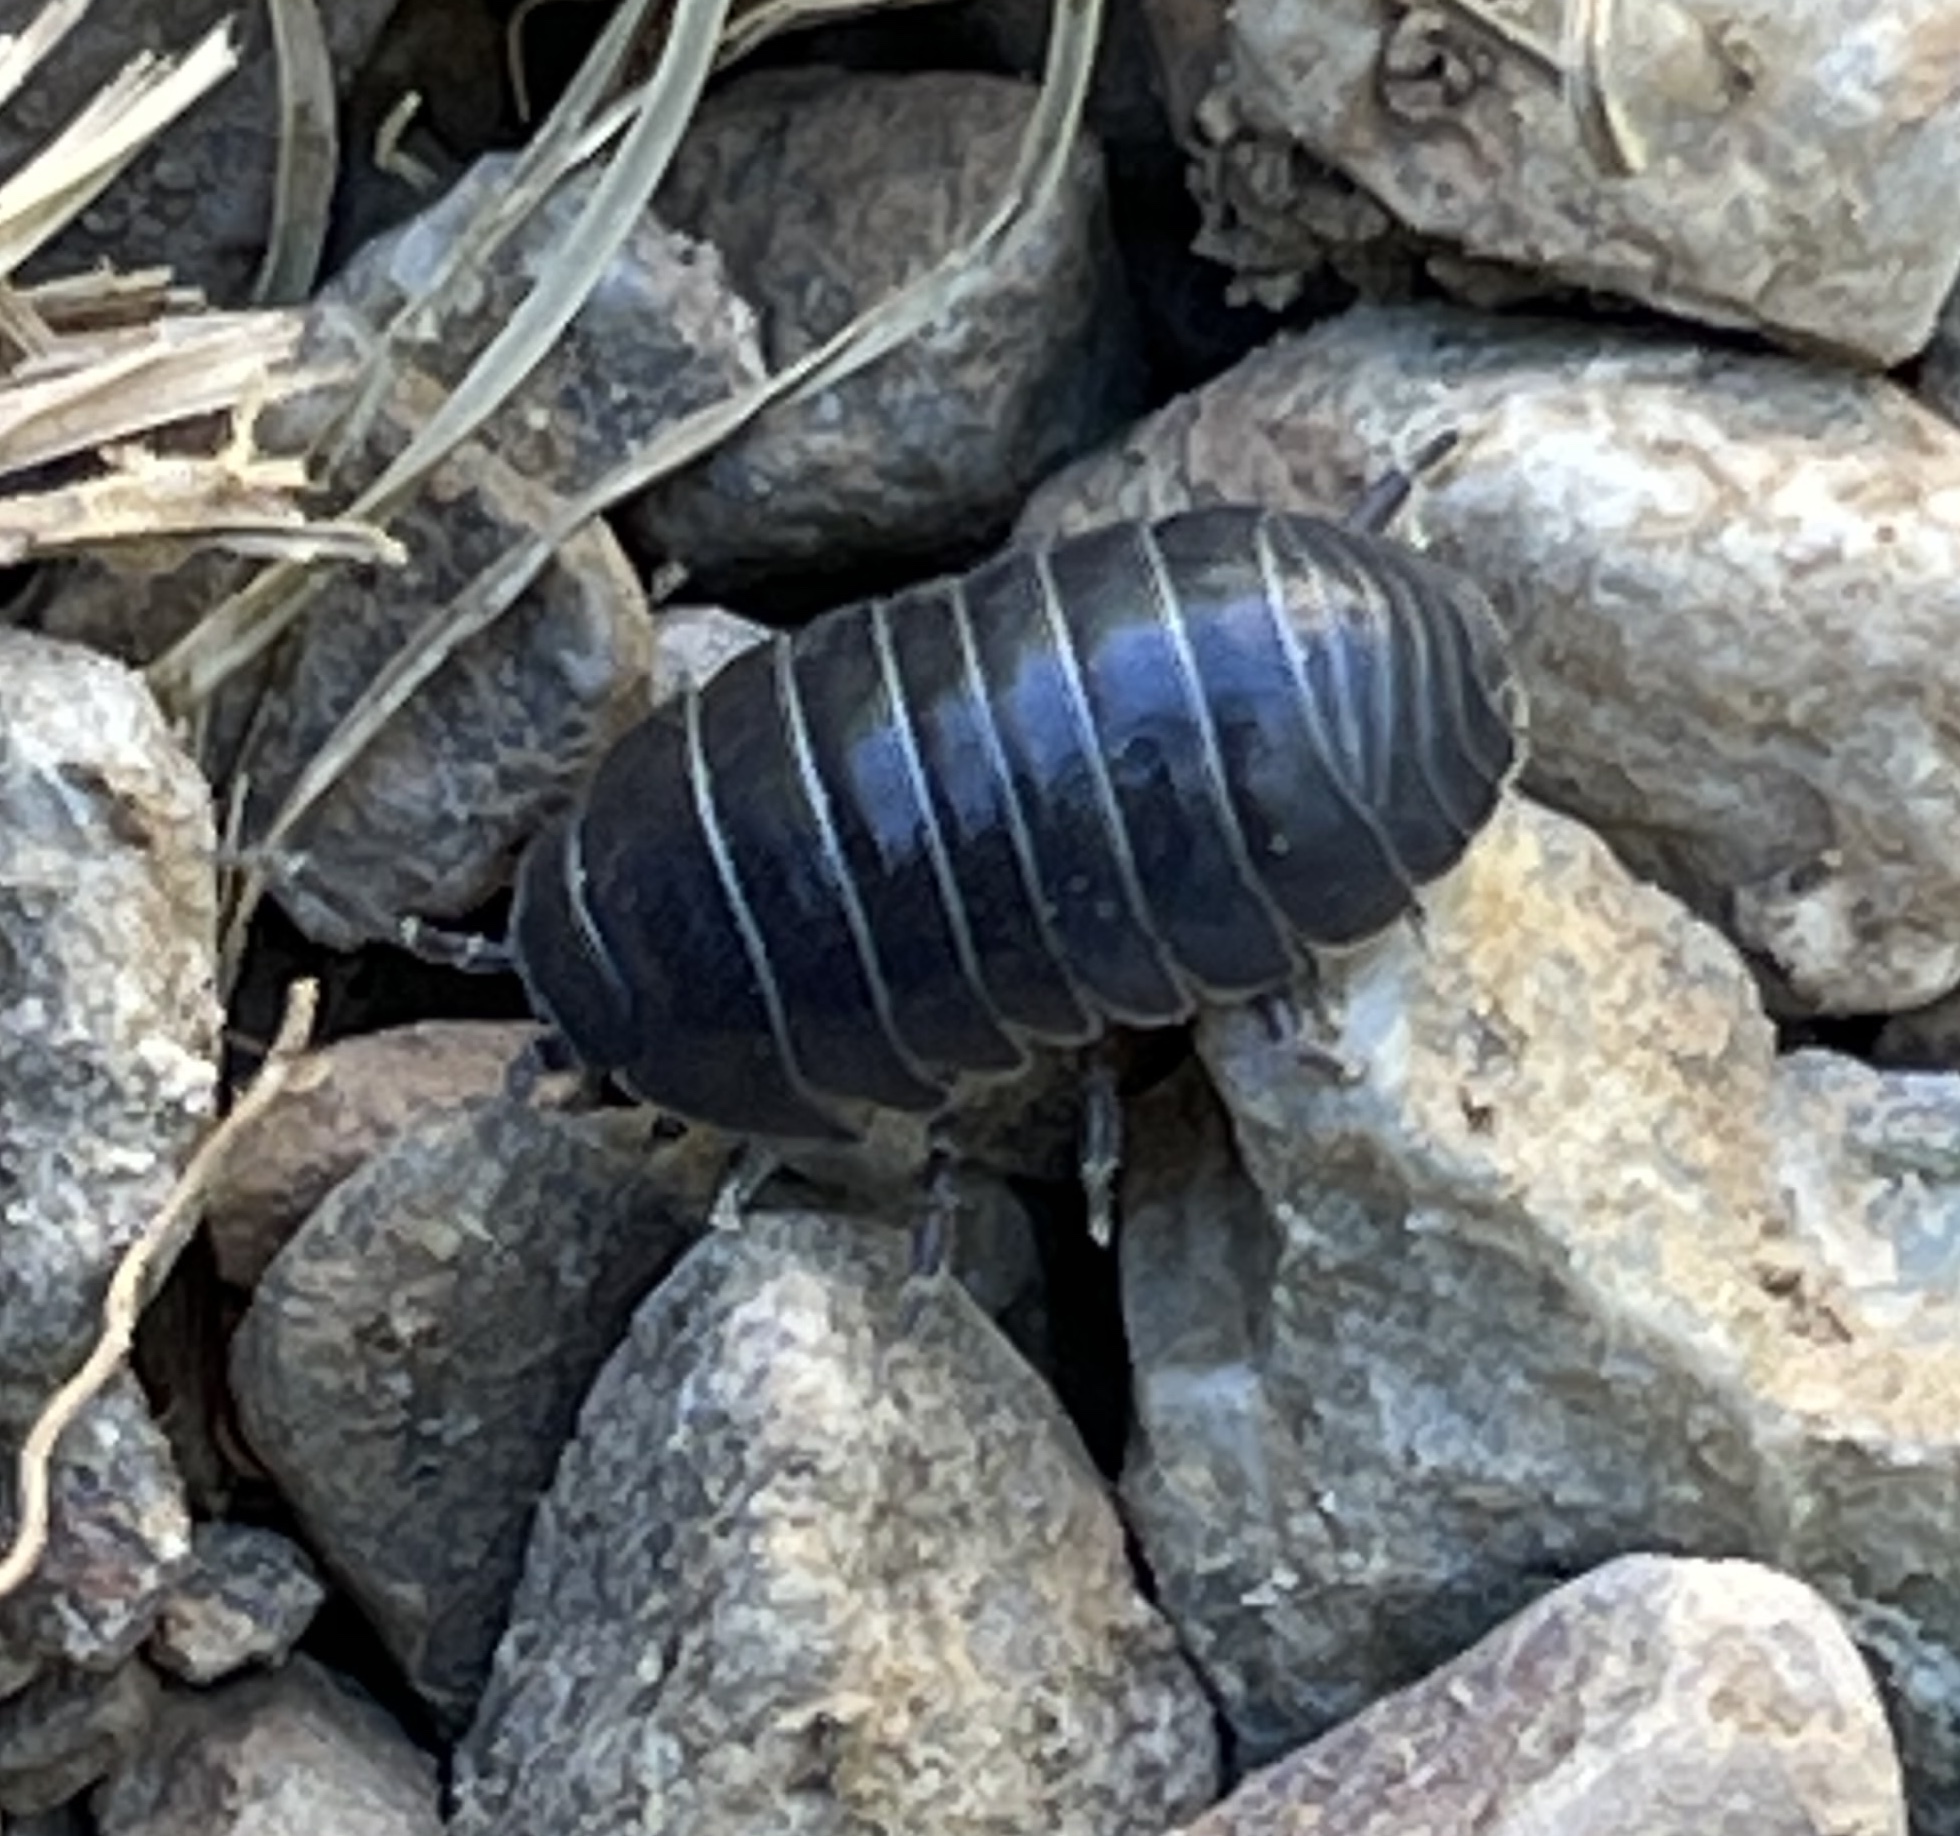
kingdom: Animalia
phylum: Arthropoda
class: Malacostraca
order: Isopoda
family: Armadillidiidae
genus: Armadillidium
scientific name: Armadillidium vulgare
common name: Common pill woodlouse
